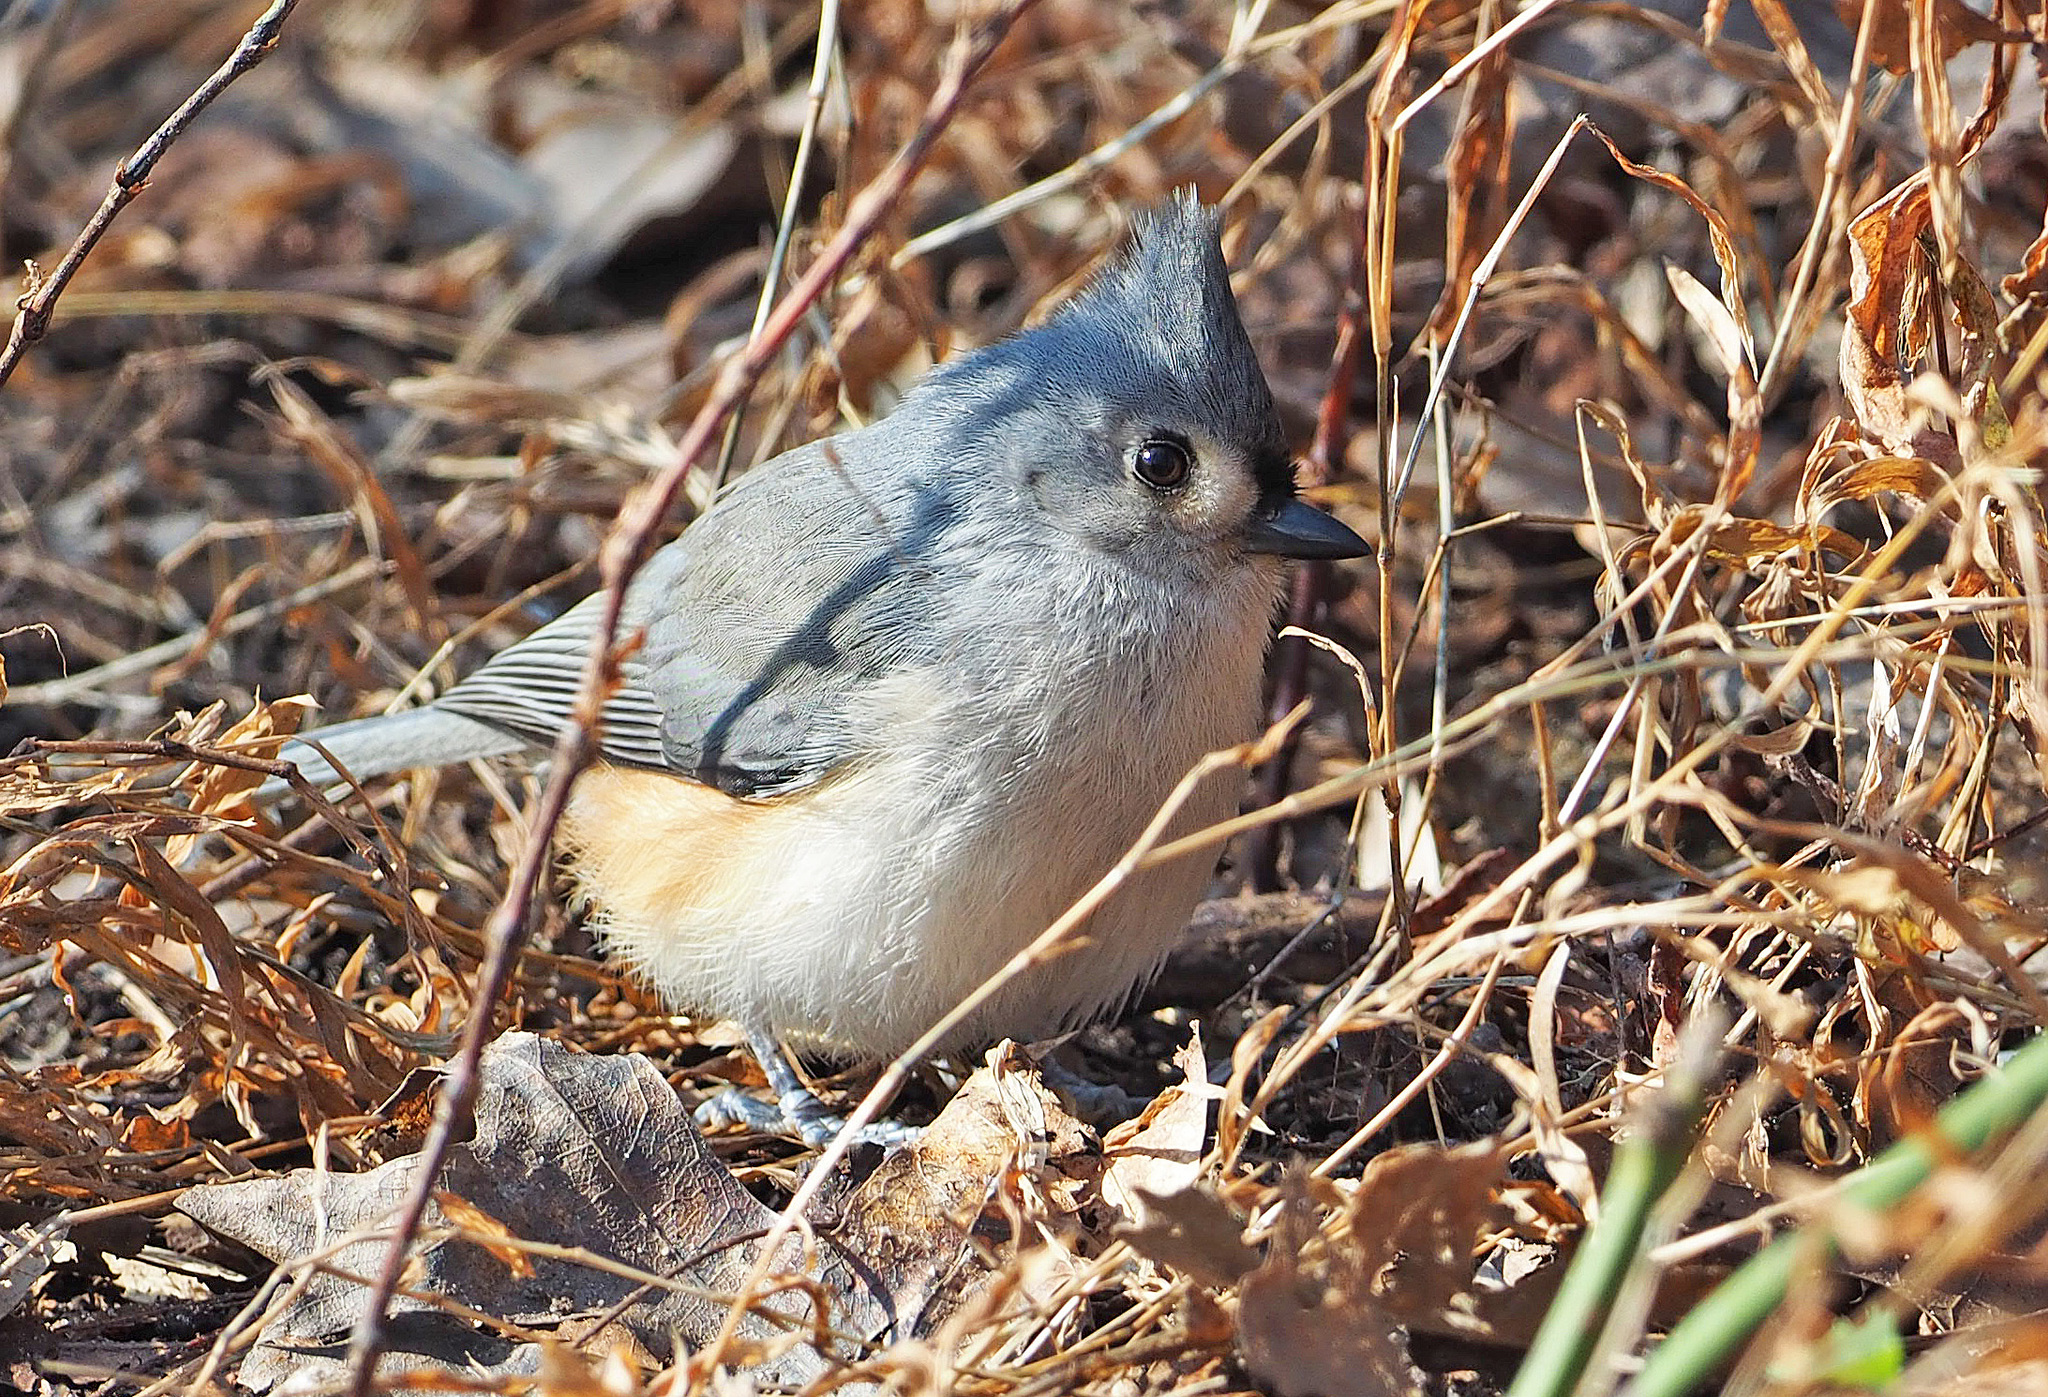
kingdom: Animalia
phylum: Chordata
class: Aves
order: Passeriformes
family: Paridae
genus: Baeolophus
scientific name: Baeolophus bicolor
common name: Tufted titmouse
